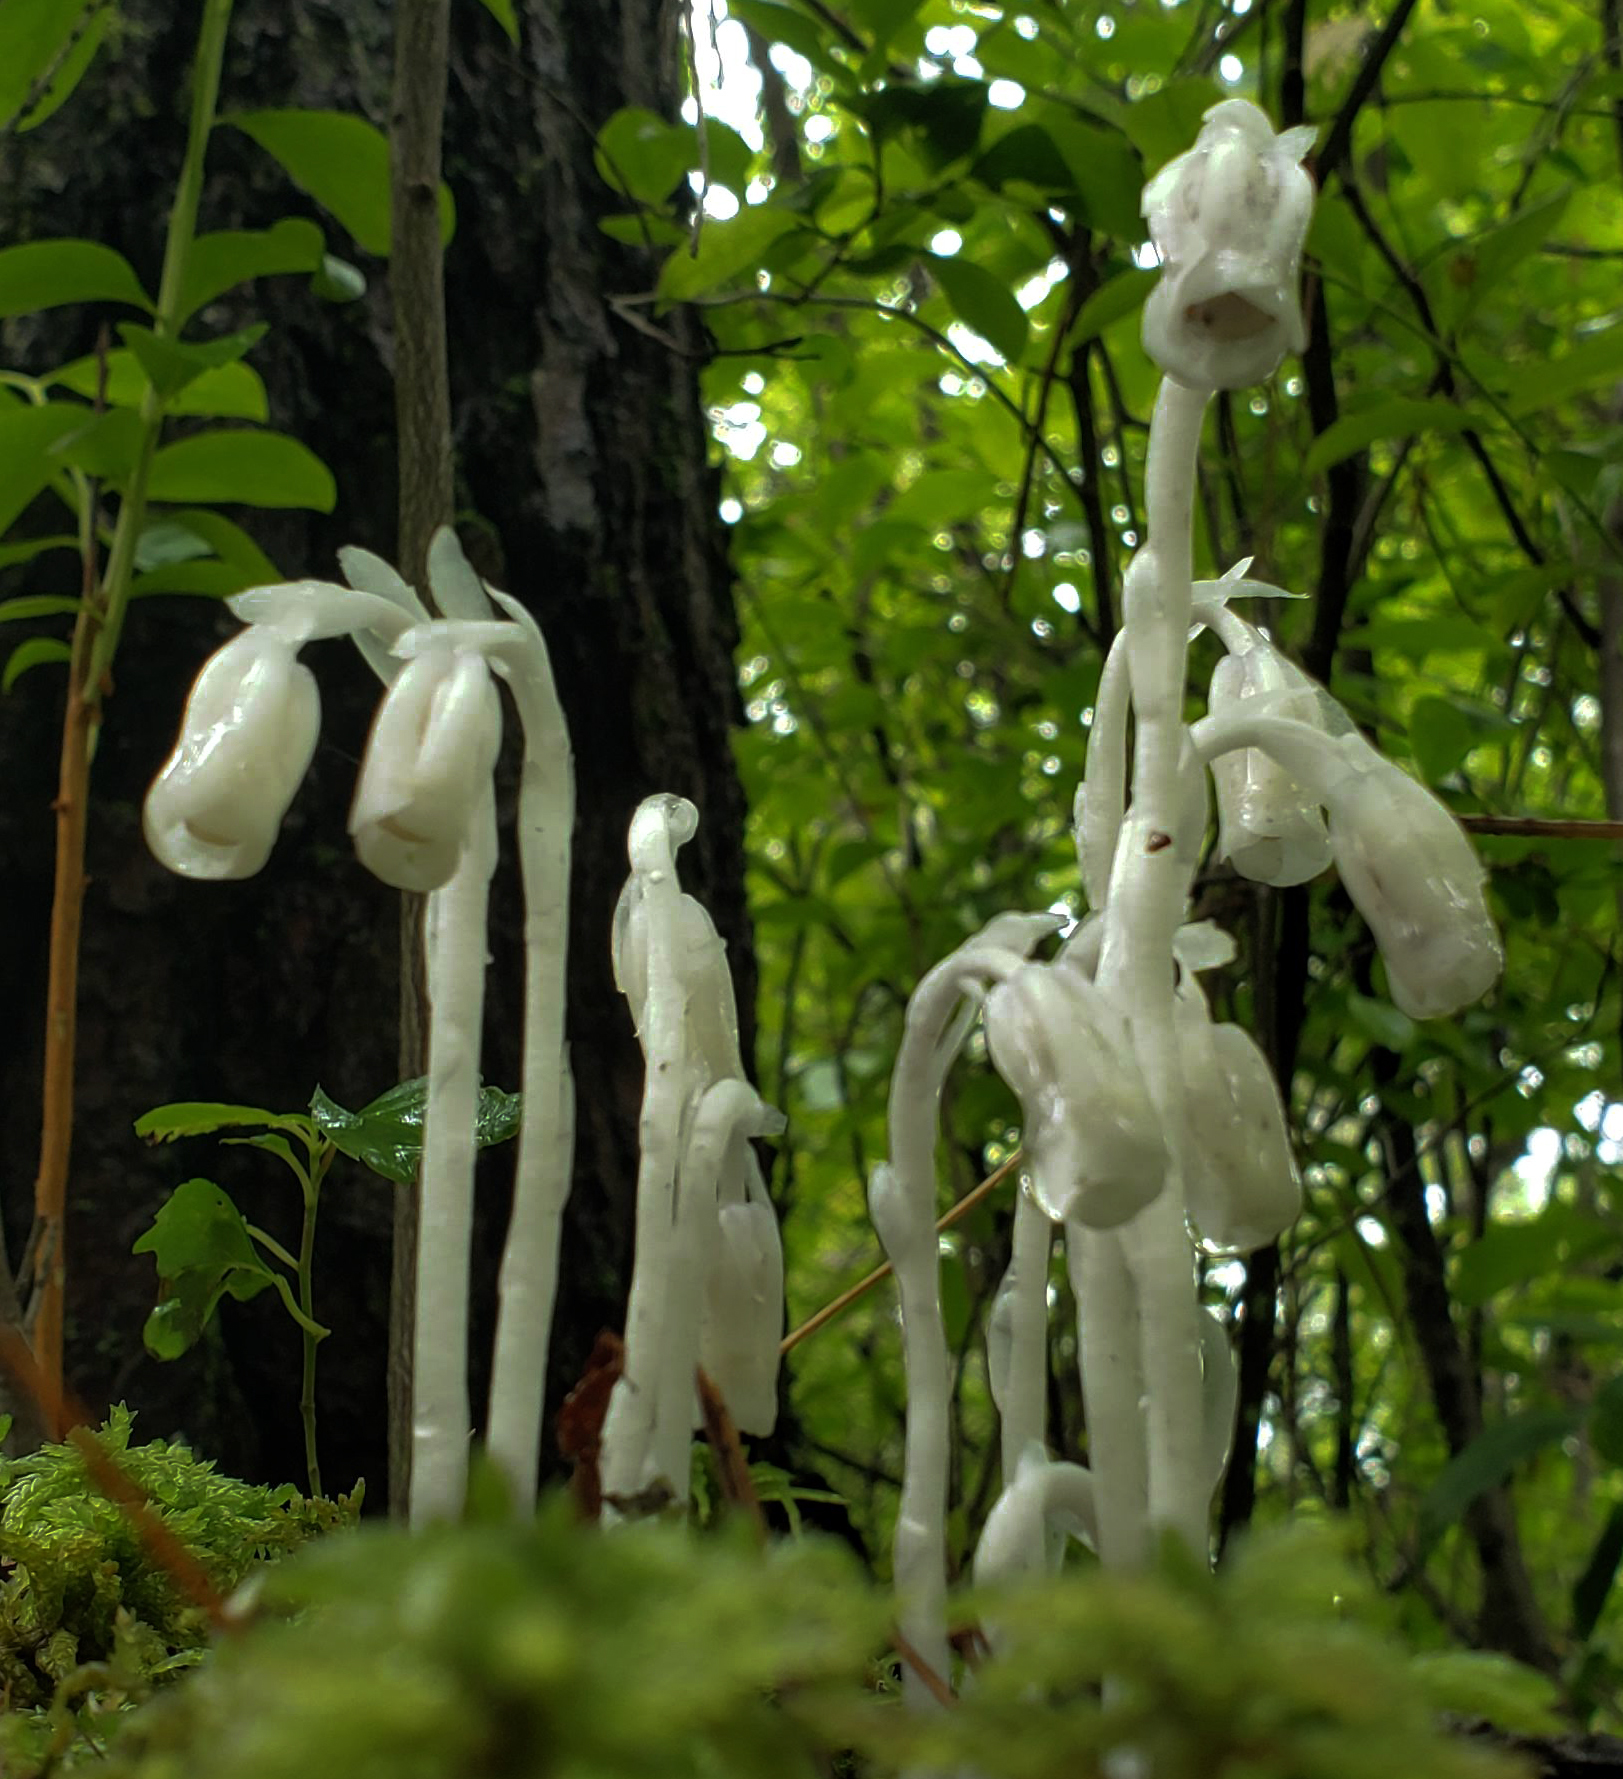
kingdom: Plantae
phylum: Tracheophyta
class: Magnoliopsida
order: Ericales
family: Ericaceae
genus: Monotropa
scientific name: Monotropa uniflora
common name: Convulsion root
